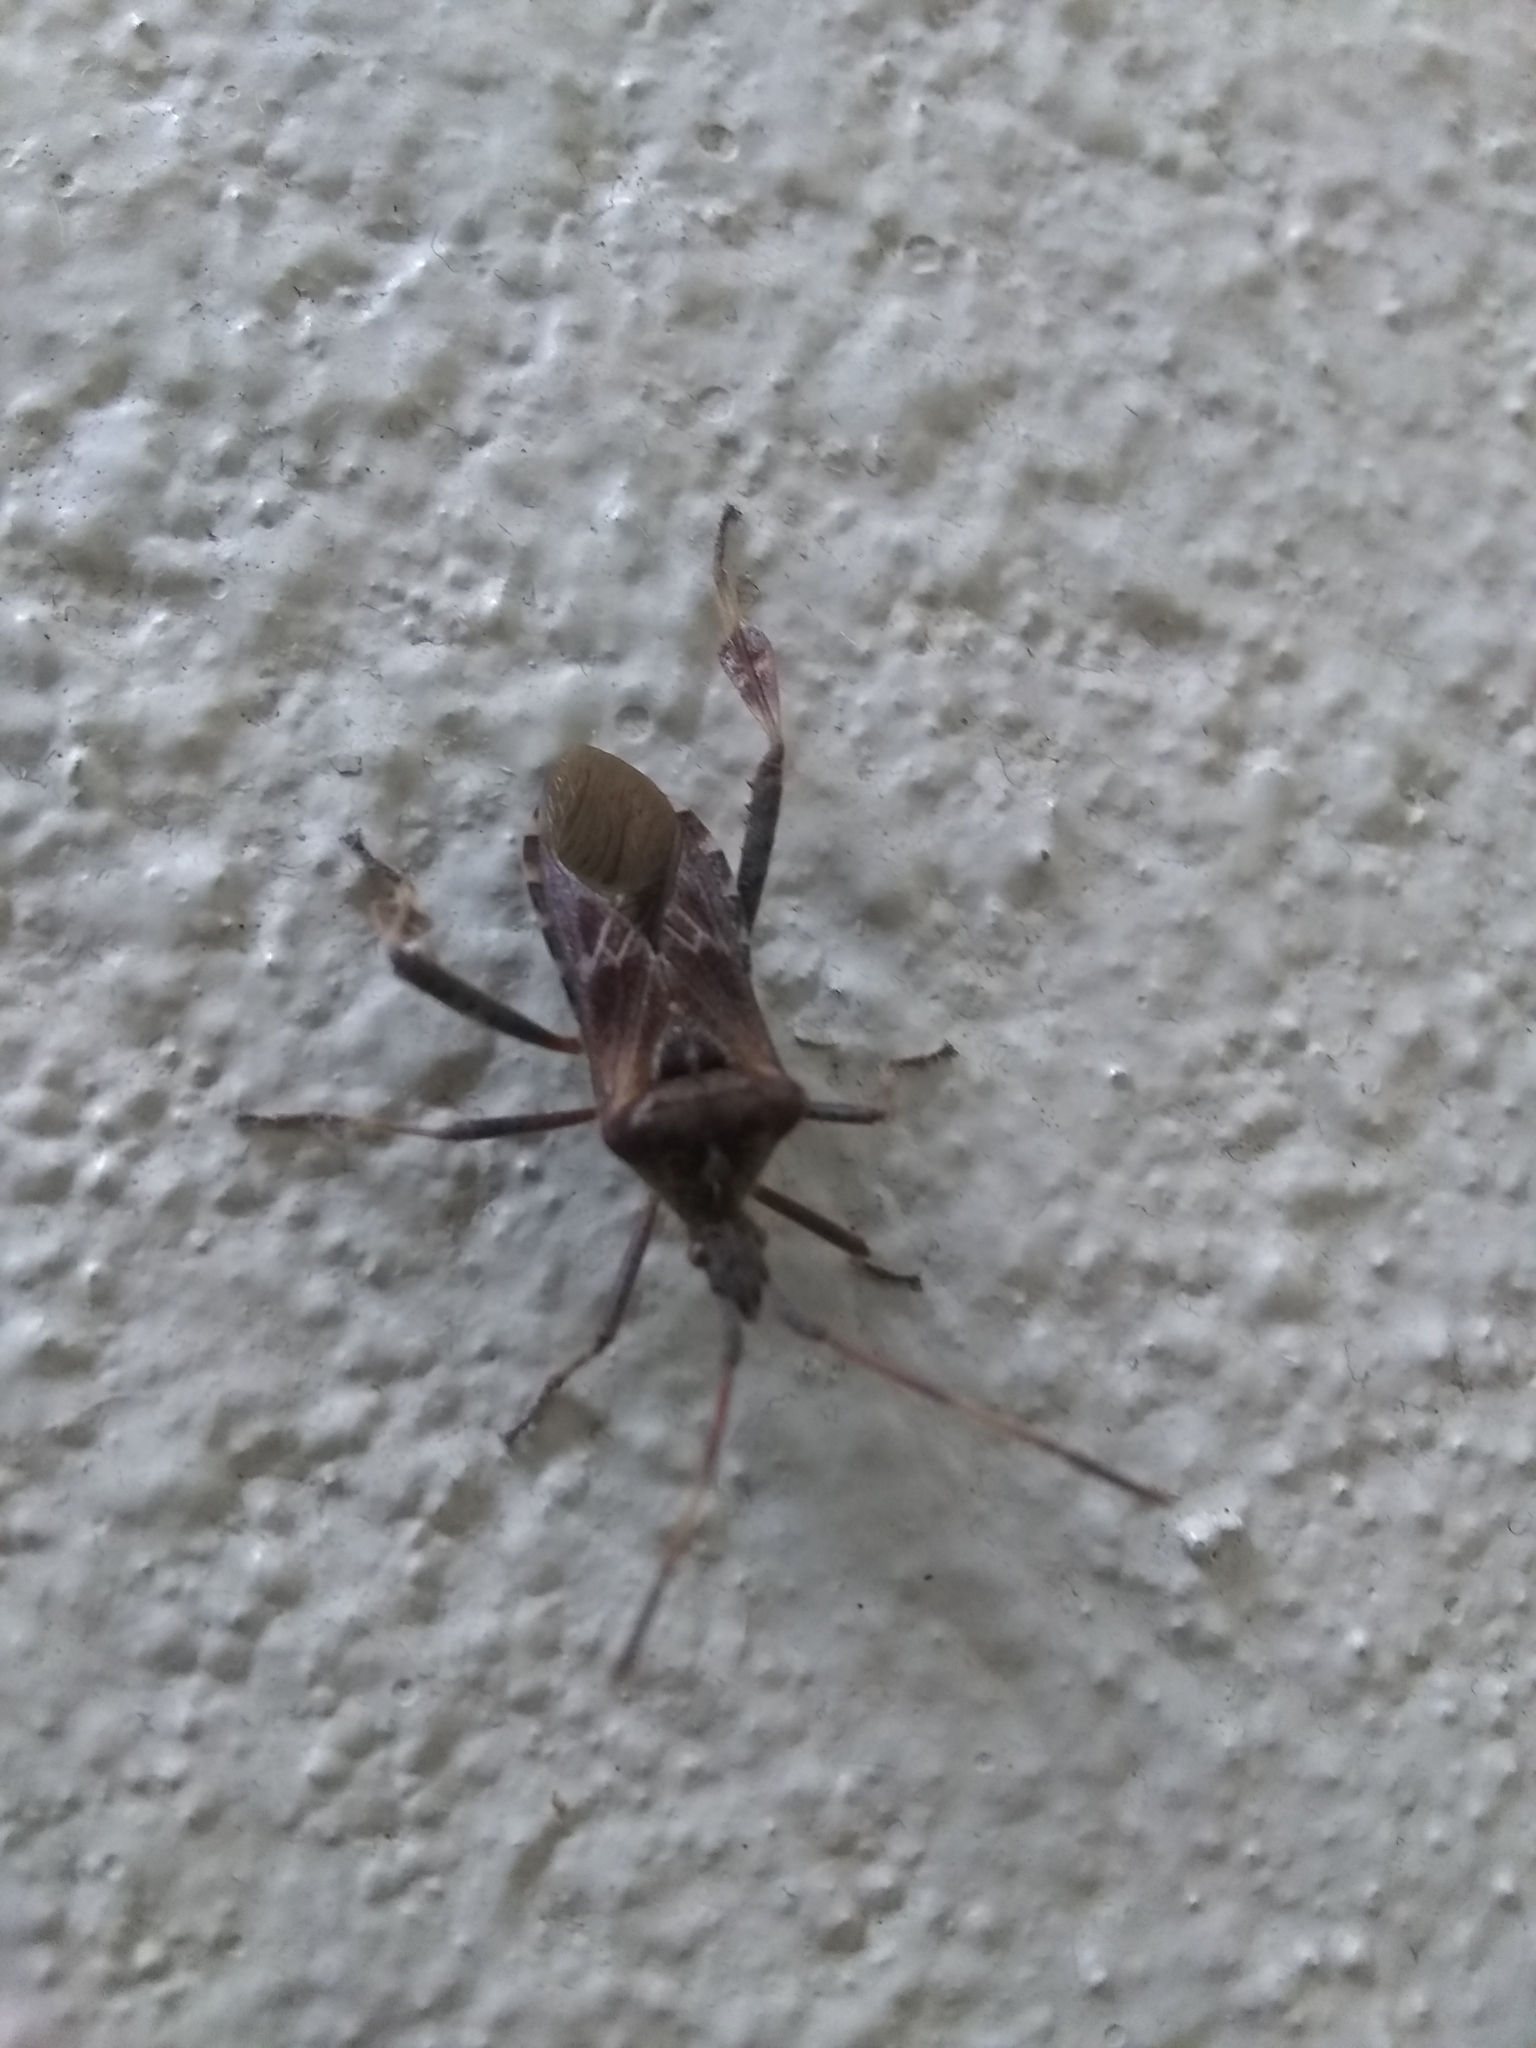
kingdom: Animalia
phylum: Arthropoda
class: Insecta
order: Hemiptera
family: Coreidae
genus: Leptoglossus
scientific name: Leptoglossus occidentalis
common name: Western conifer-seed bug
